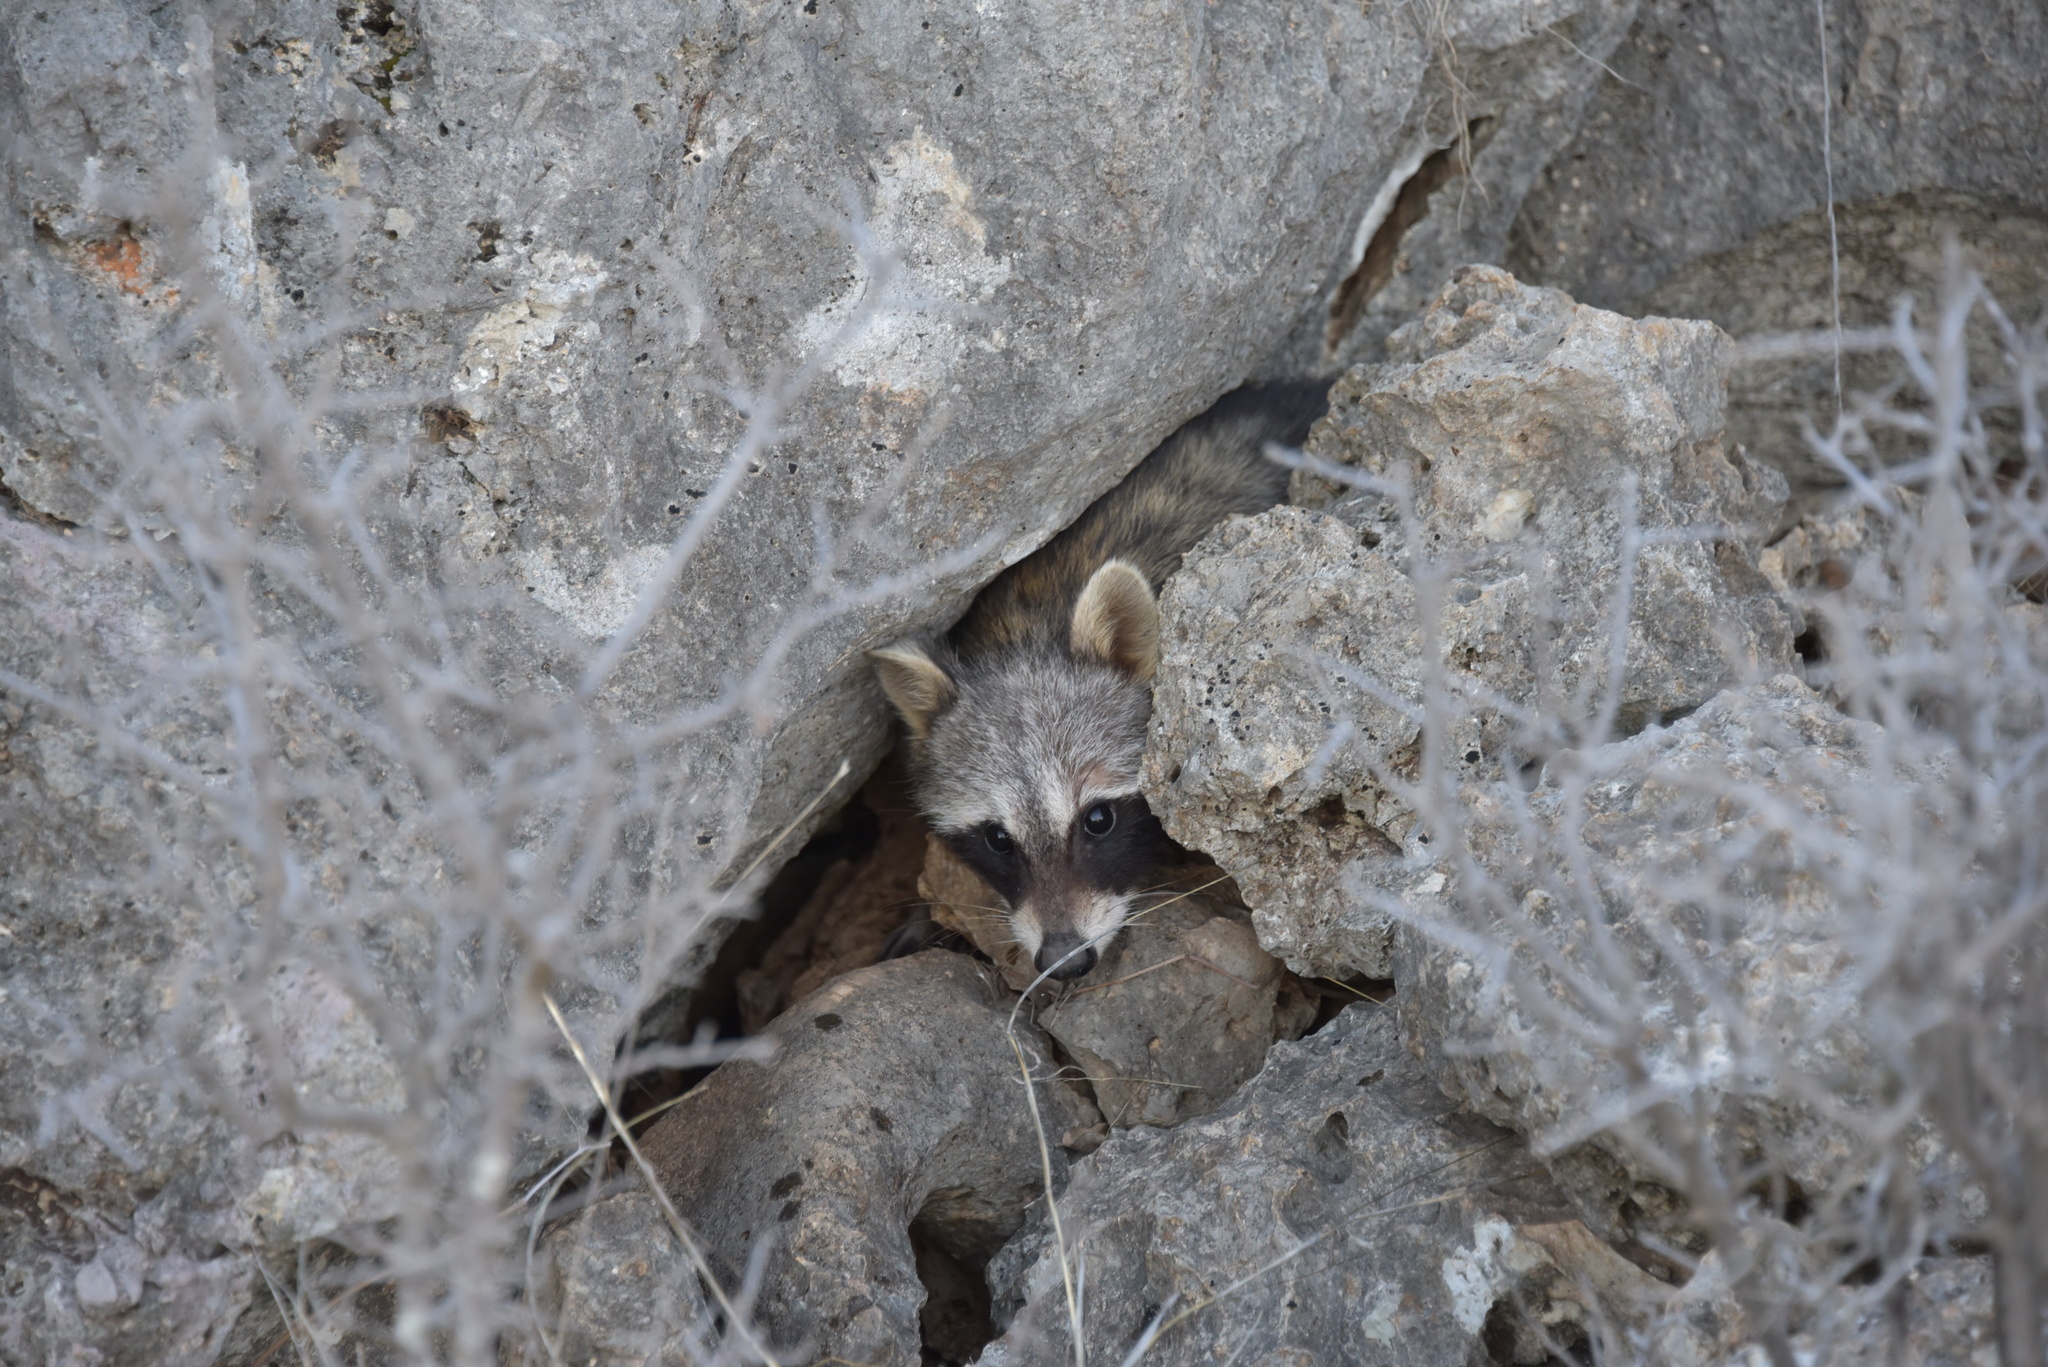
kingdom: Animalia
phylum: Chordata
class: Mammalia
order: Carnivora
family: Procyonidae
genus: Procyon
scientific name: Procyon lotor
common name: Raccoon
